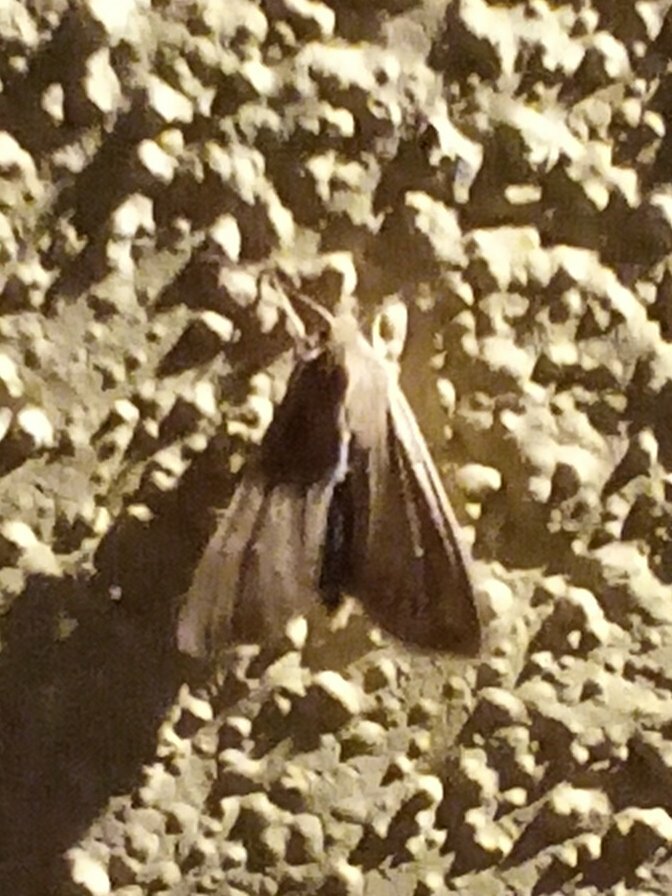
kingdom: Animalia
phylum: Arthropoda
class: Insecta
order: Lepidoptera
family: Noctuidae
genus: Mythimna
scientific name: Mythimna unipuncta
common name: White-speck
